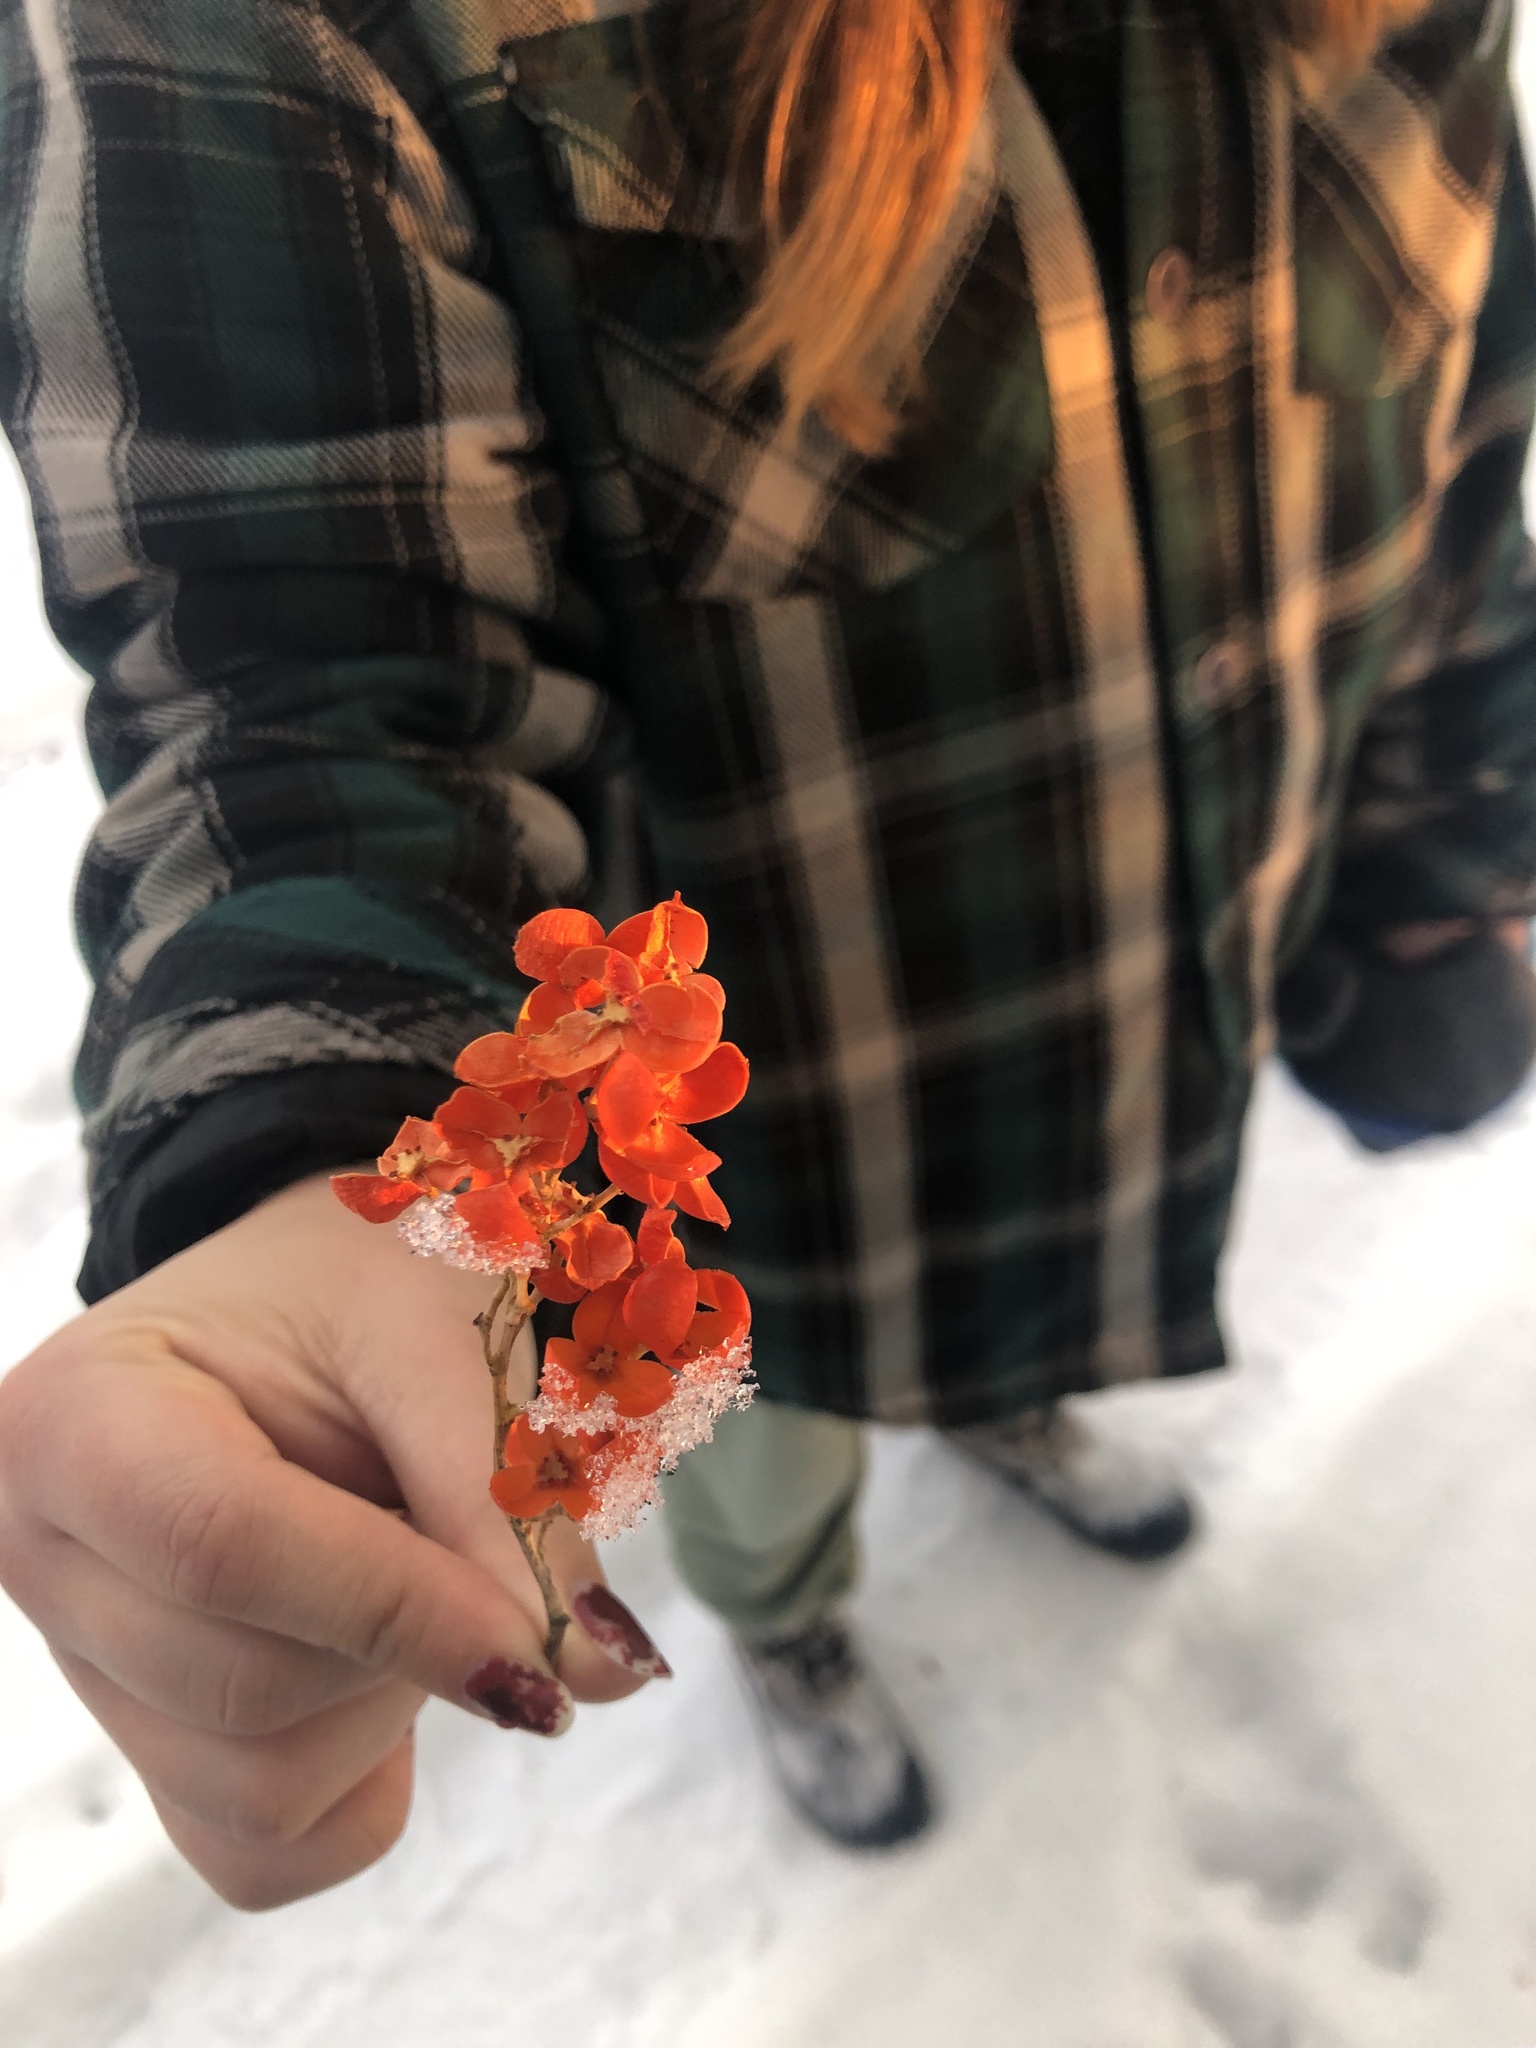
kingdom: Plantae
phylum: Tracheophyta
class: Magnoliopsida
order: Celastrales
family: Celastraceae
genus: Celastrus
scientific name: Celastrus scandens
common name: American bittersweet
